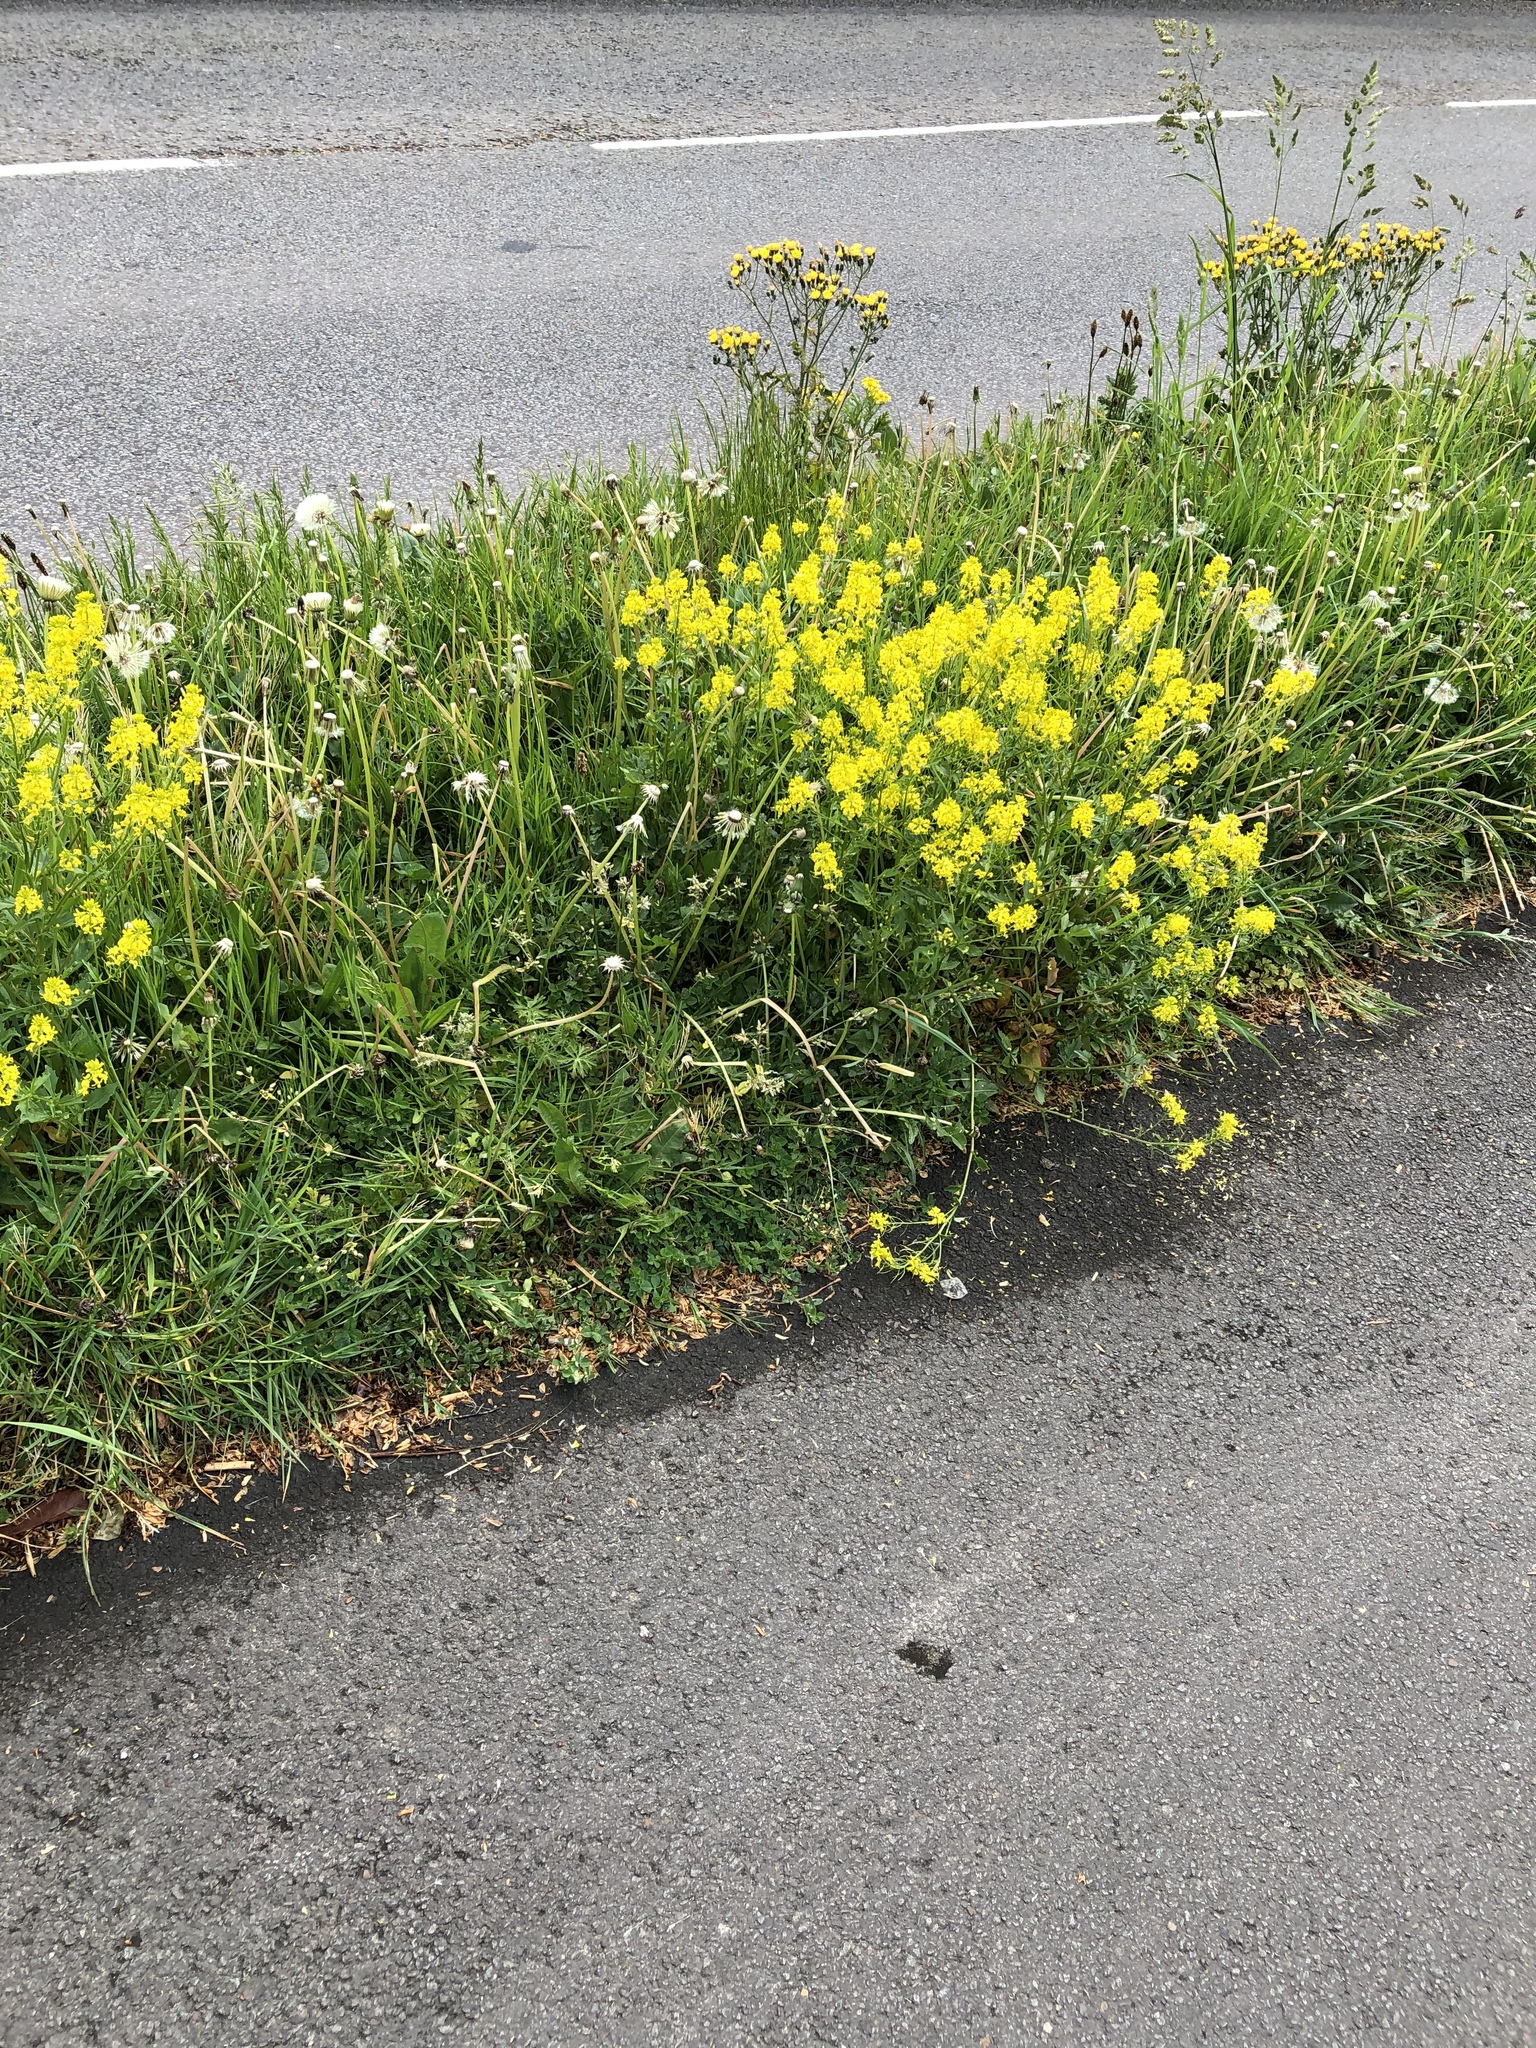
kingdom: Plantae
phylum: Tracheophyta
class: Magnoliopsida
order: Brassicales
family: Brassicaceae
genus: Barbarea
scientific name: Barbarea vulgaris
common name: Cressy-greens
